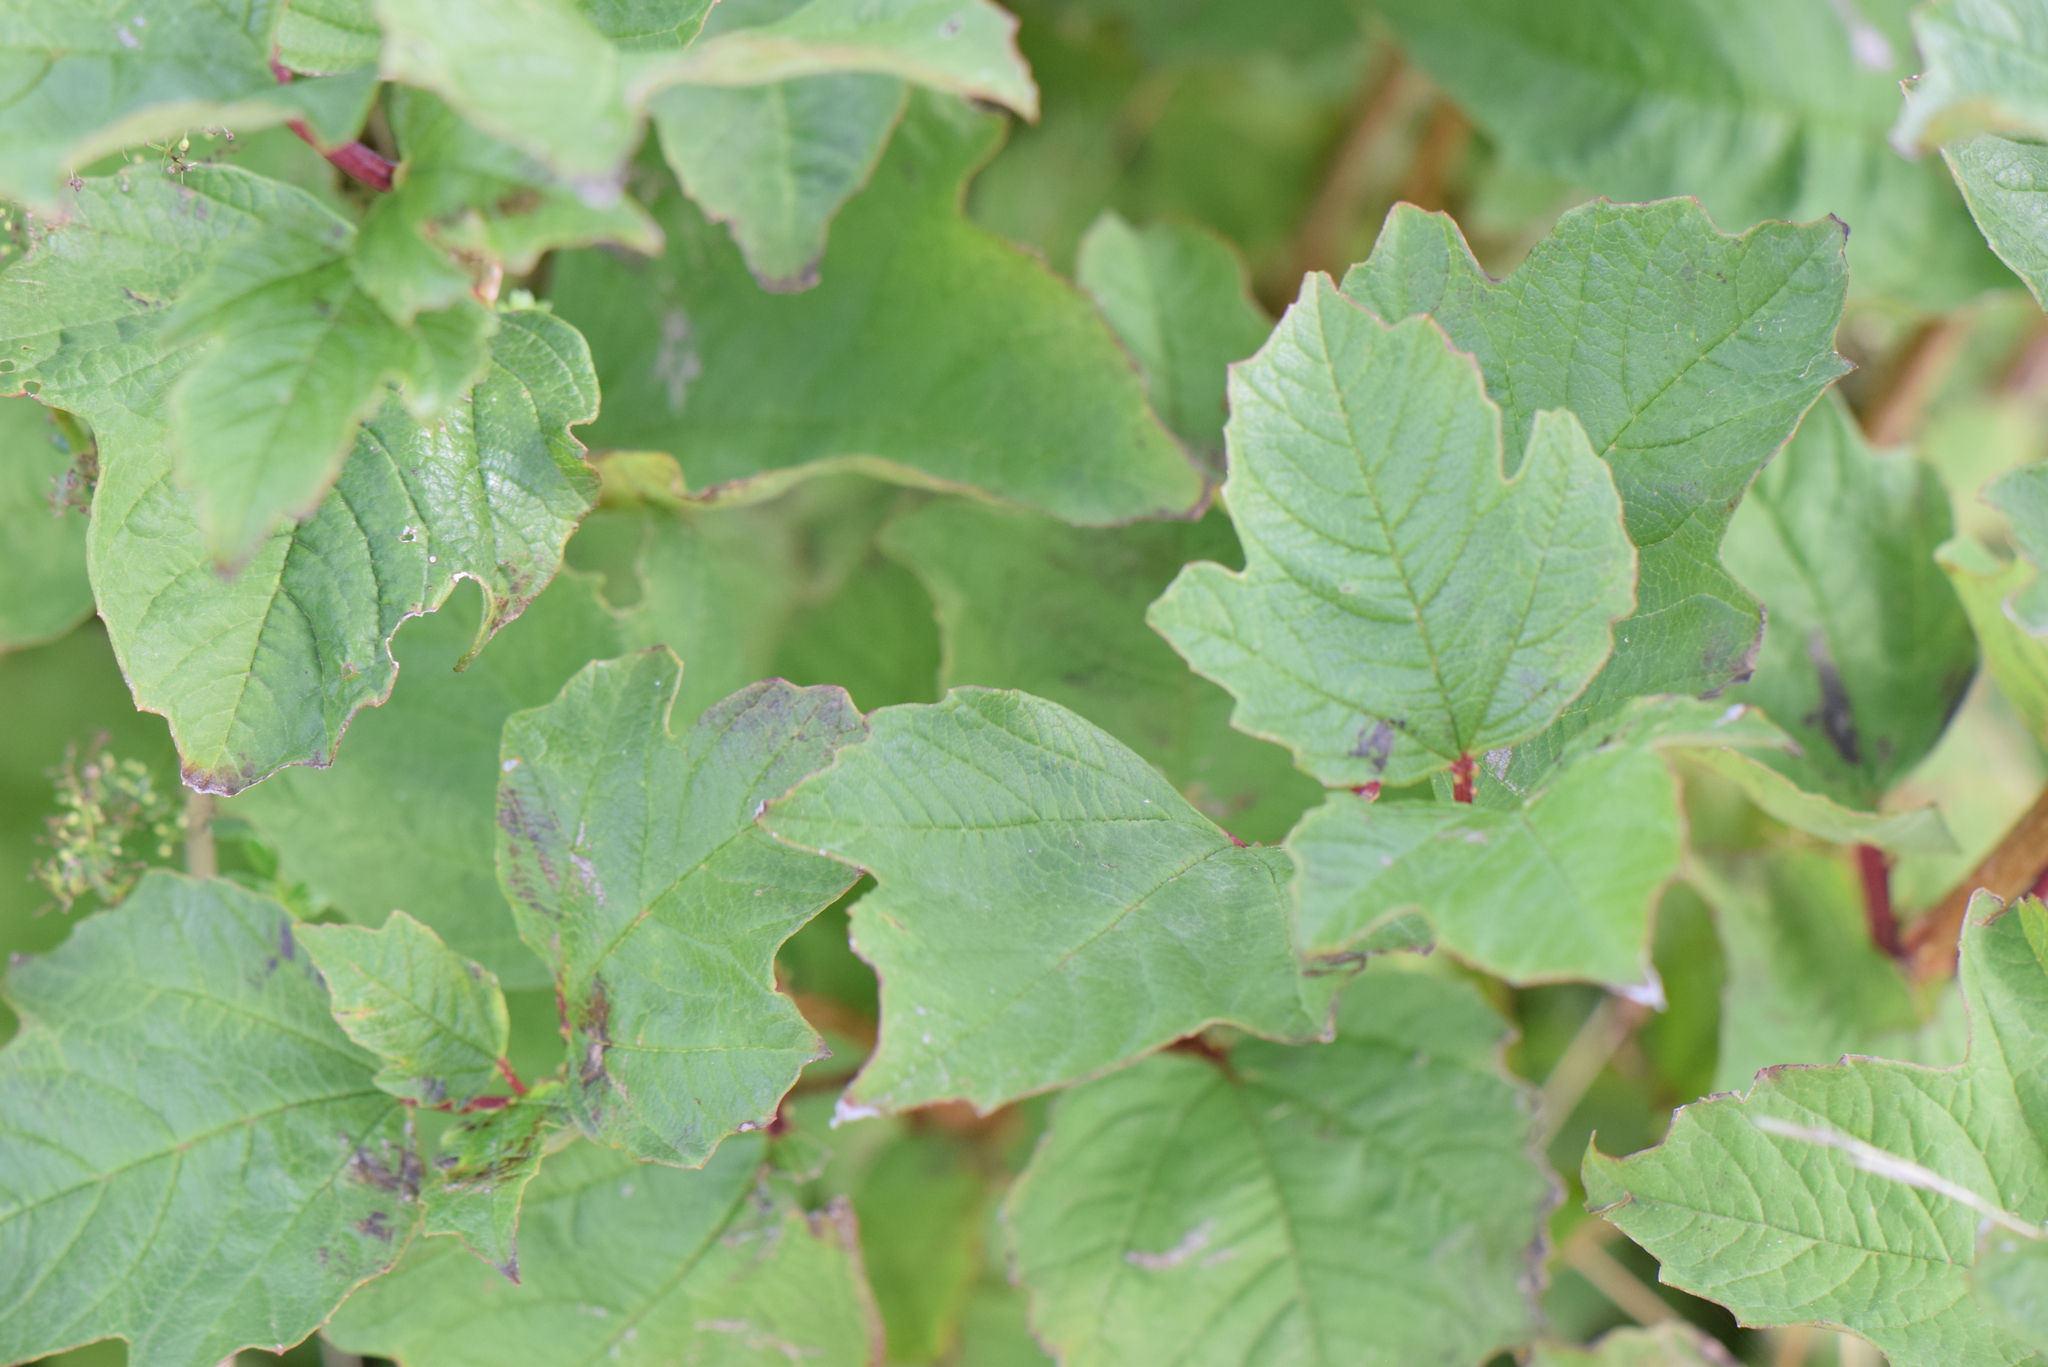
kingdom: Plantae
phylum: Tracheophyta
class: Magnoliopsida
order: Dipsacales
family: Viburnaceae
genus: Viburnum
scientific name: Viburnum opulus
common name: Guelder-rose
